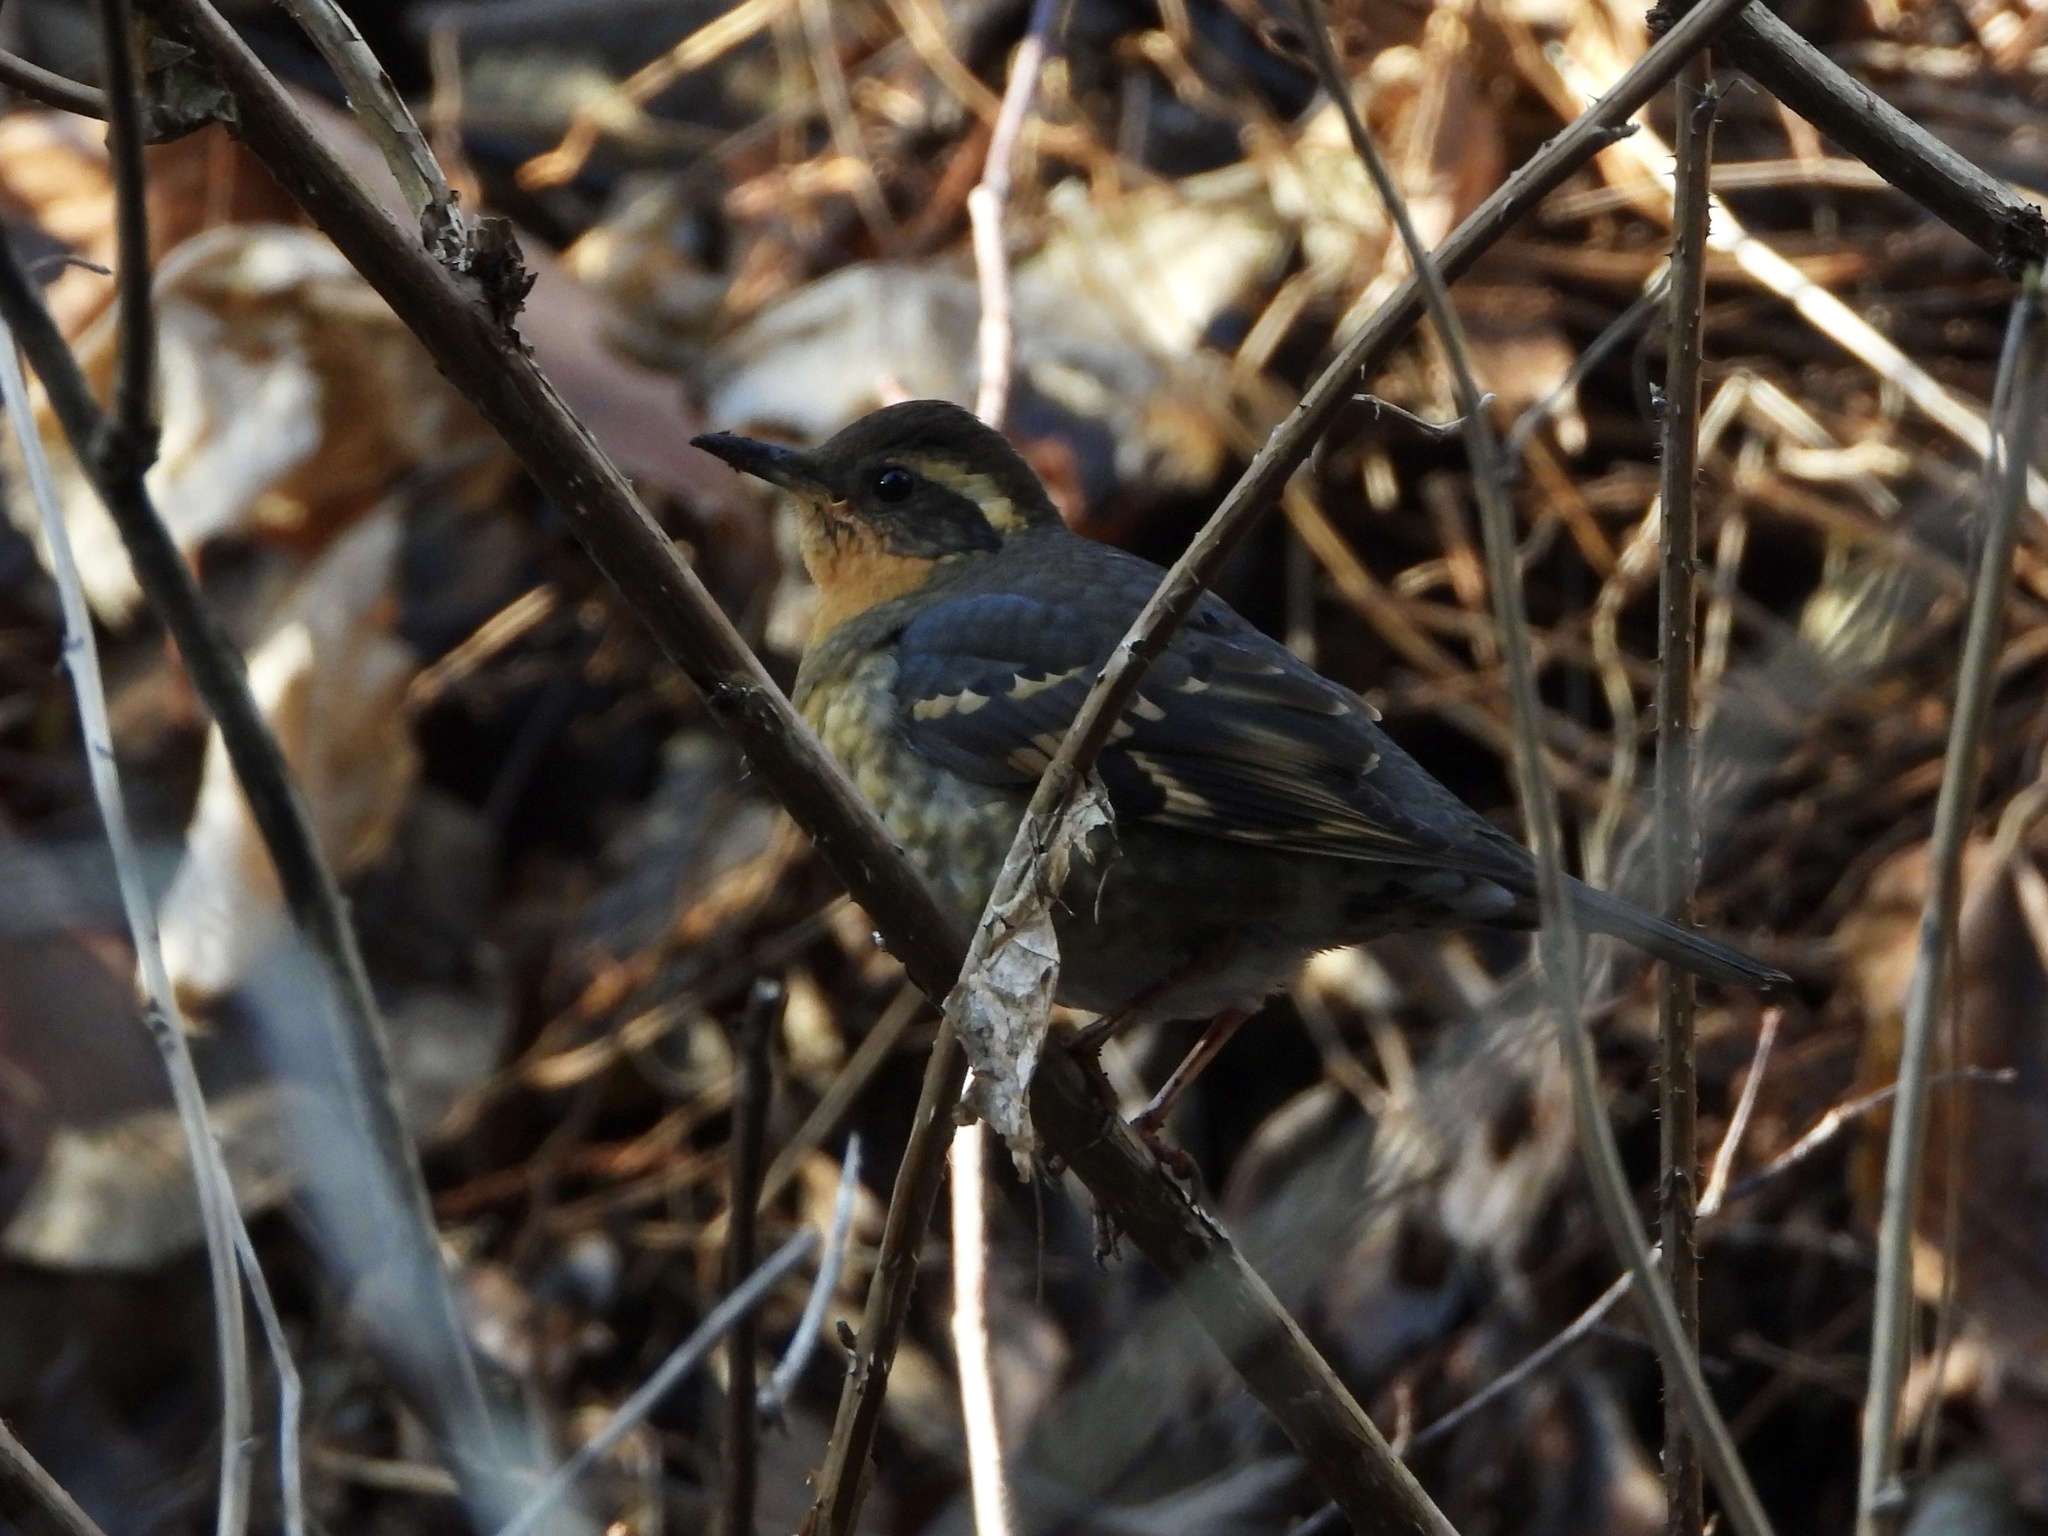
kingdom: Animalia
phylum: Chordata
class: Aves
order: Passeriformes
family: Turdidae
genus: Ixoreus
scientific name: Ixoreus naevius
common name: Varied thrush
